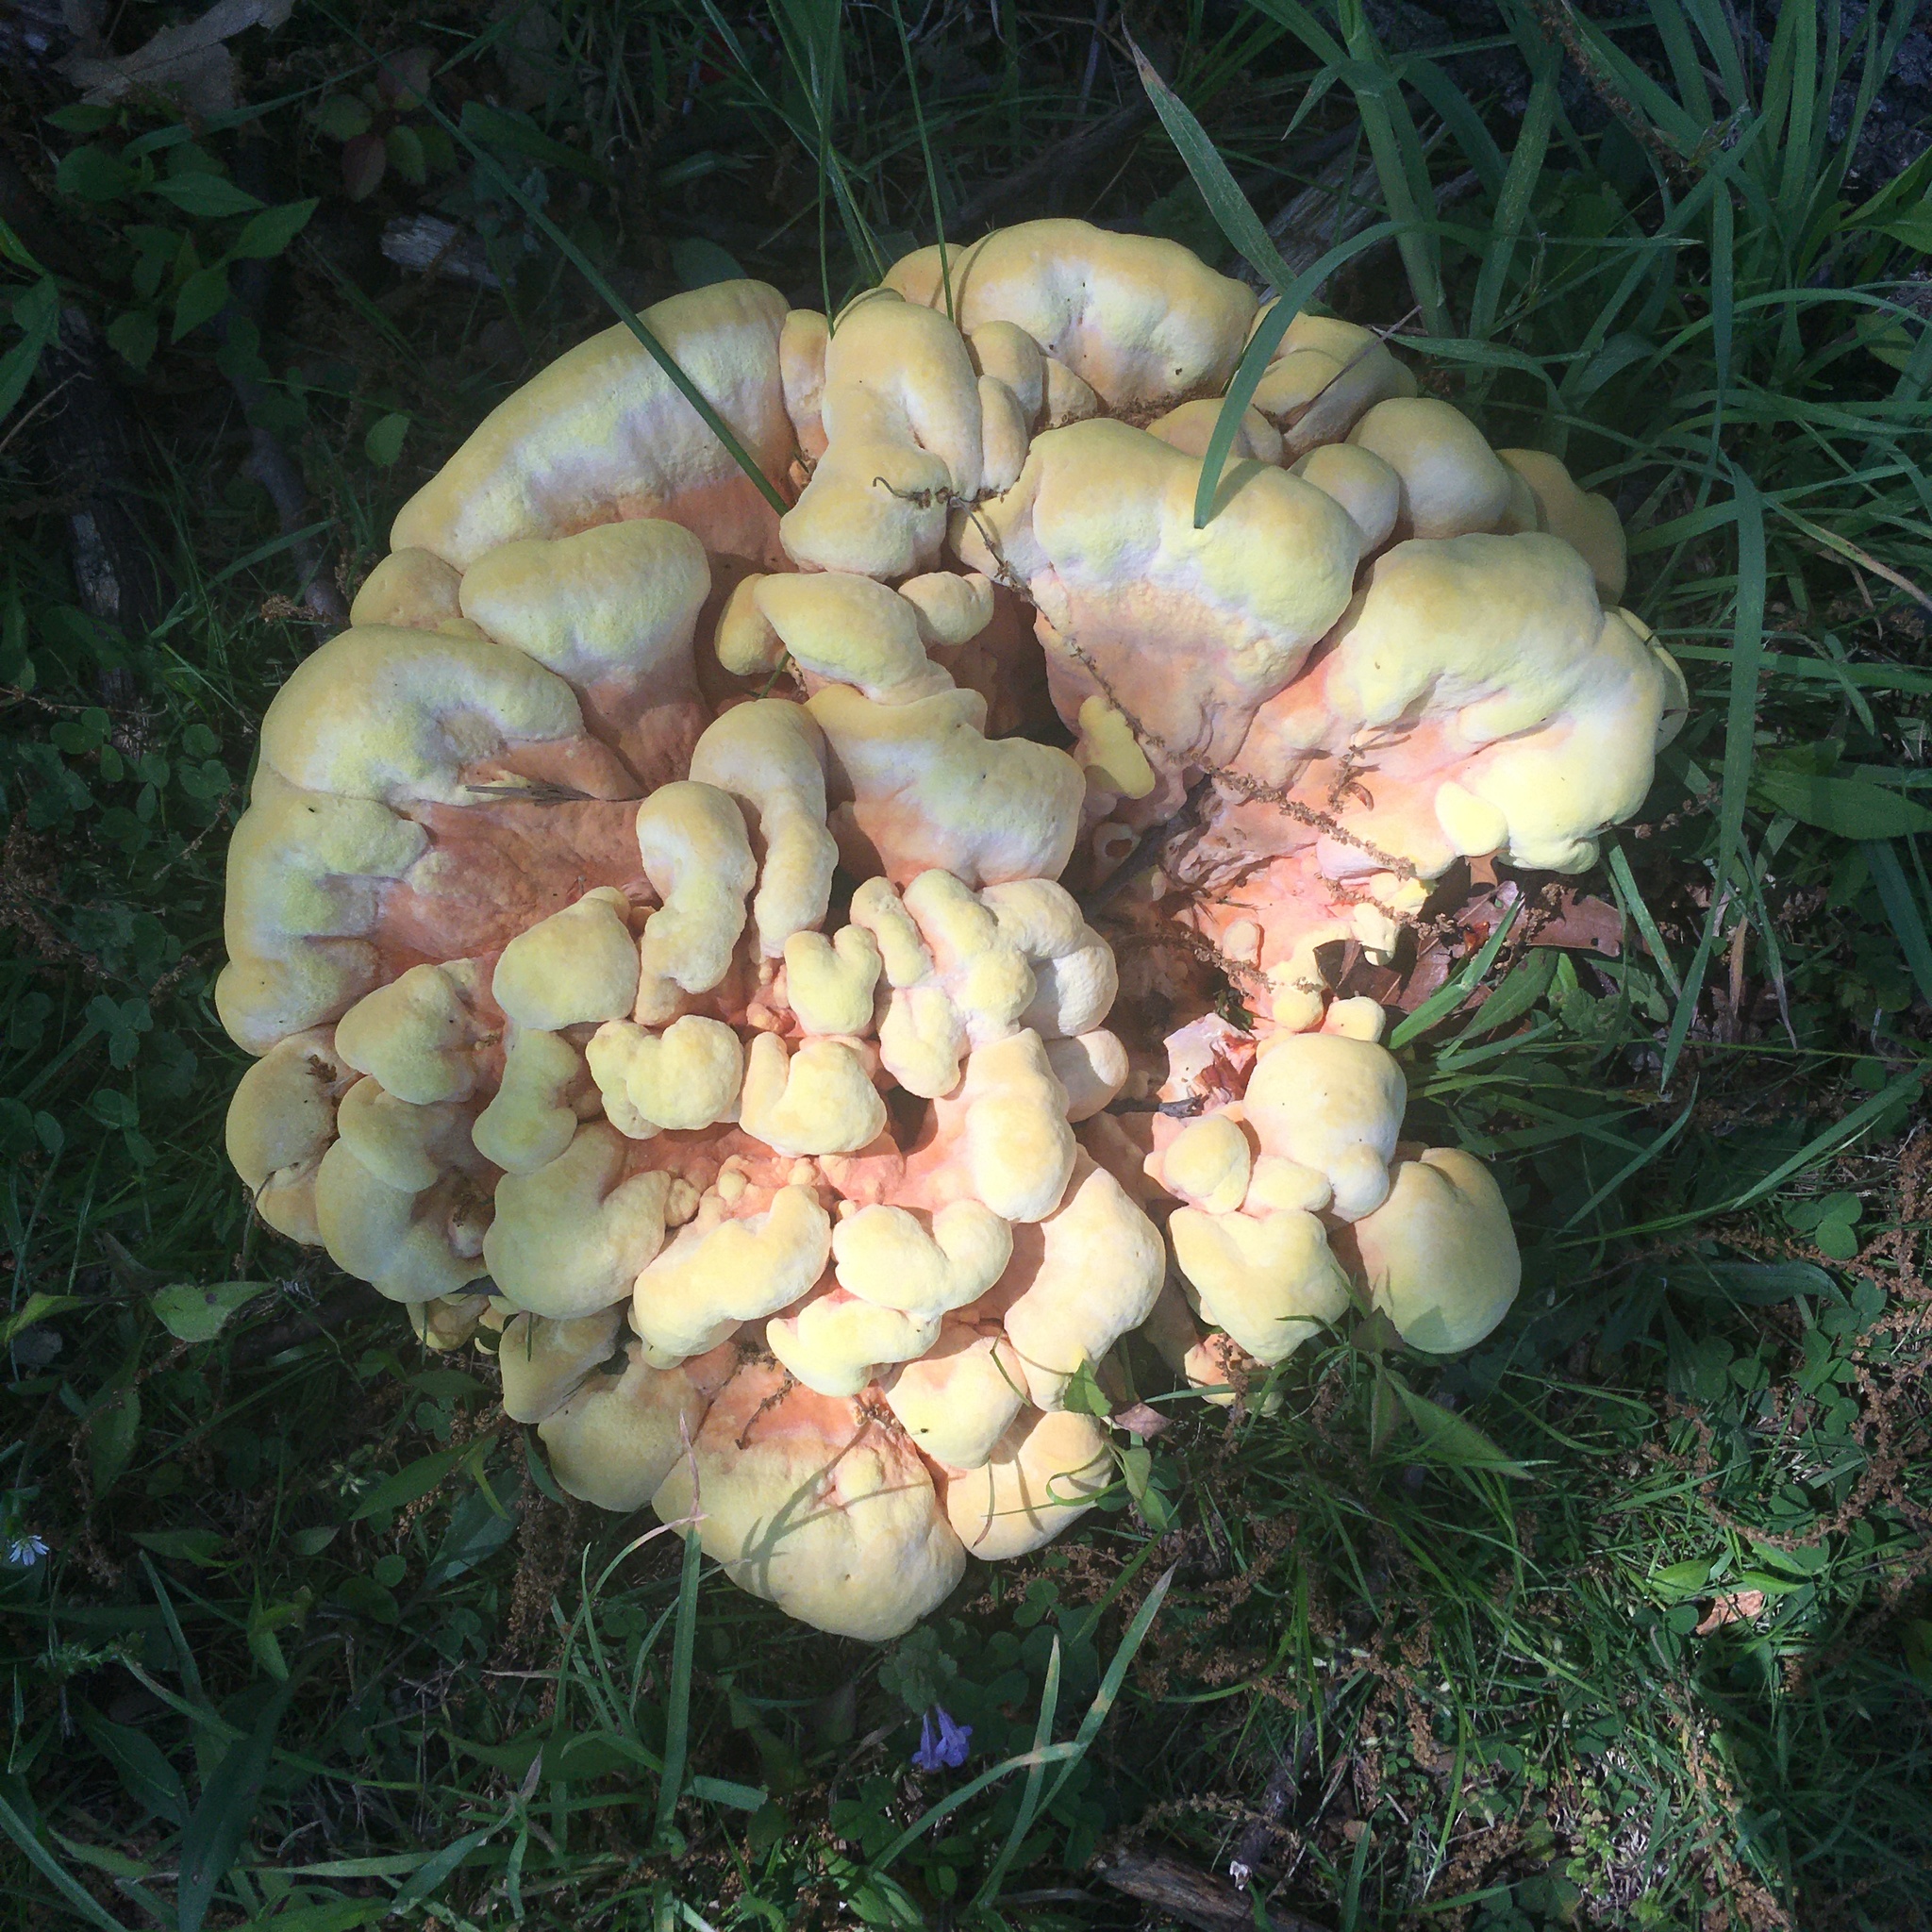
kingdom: Fungi
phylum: Basidiomycota
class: Agaricomycetes
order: Polyporales
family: Laetiporaceae
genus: Laetiporus
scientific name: Laetiporus sulphureus
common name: Chicken of the woods
